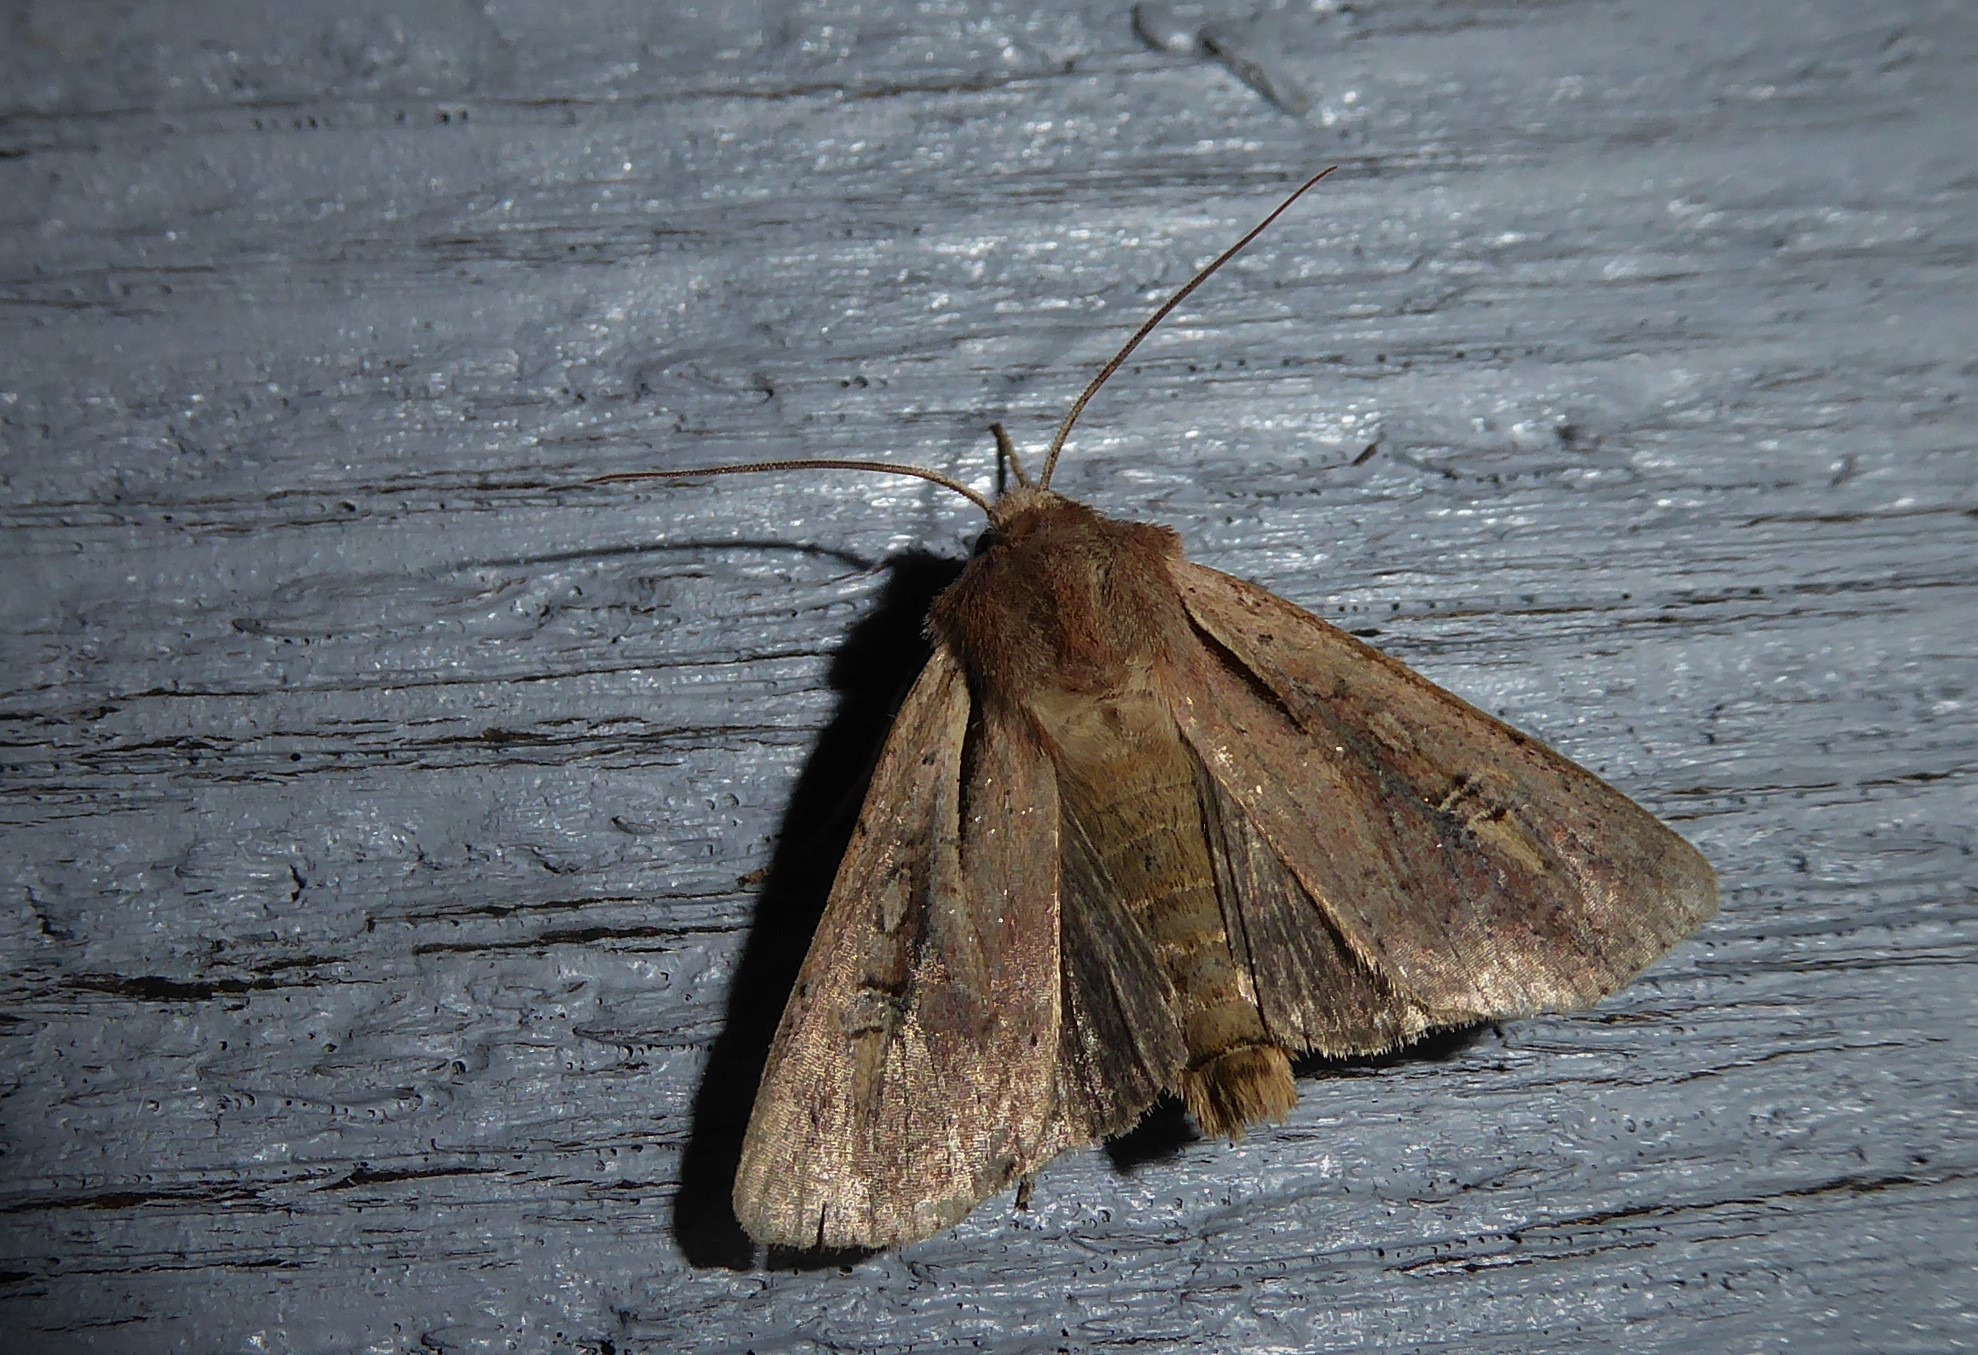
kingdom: Animalia
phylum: Arthropoda
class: Insecta
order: Lepidoptera
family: Noctuidae
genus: Ichneutica
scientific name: Ichneutica atristriga
